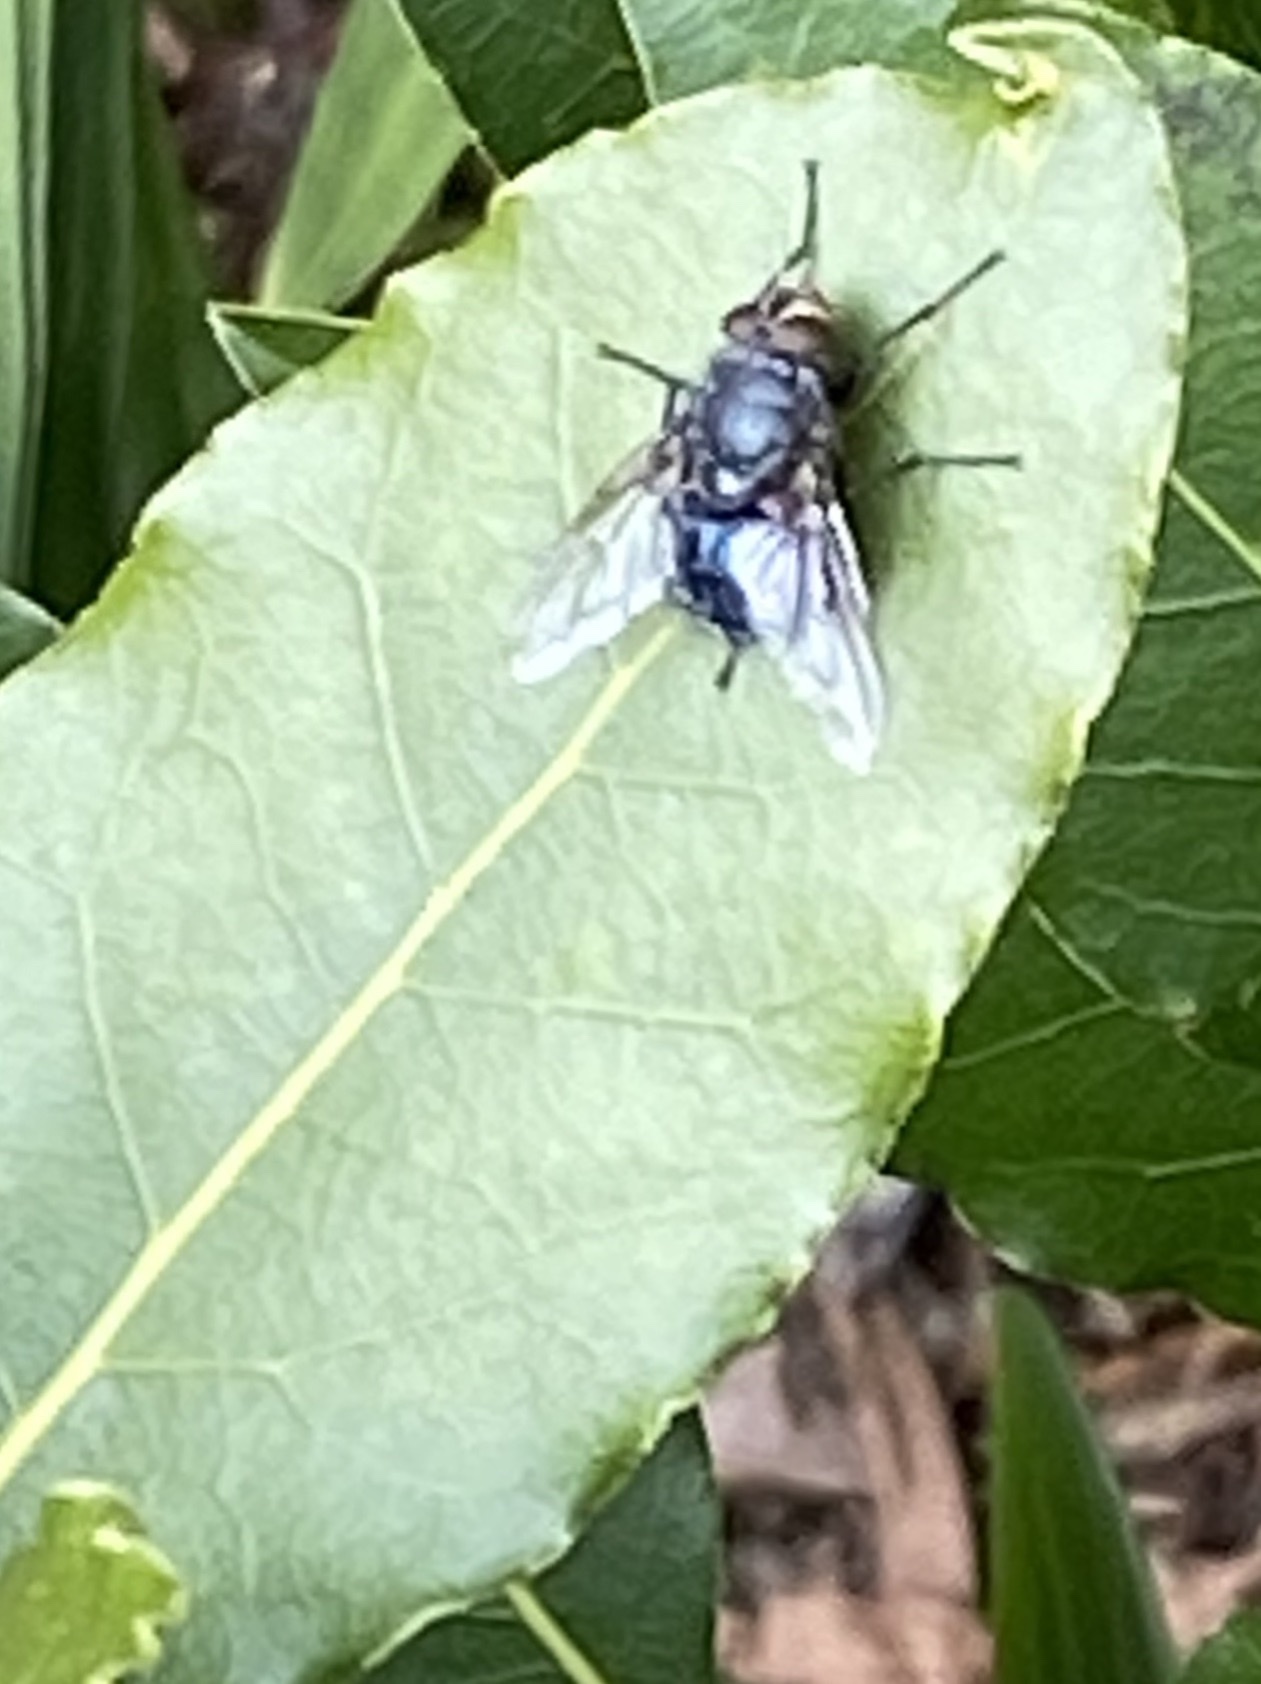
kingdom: Animalia
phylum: Arthropoda
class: Insecta
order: Diptera
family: Calliphoridae
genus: Calliphora
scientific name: Calliphora
